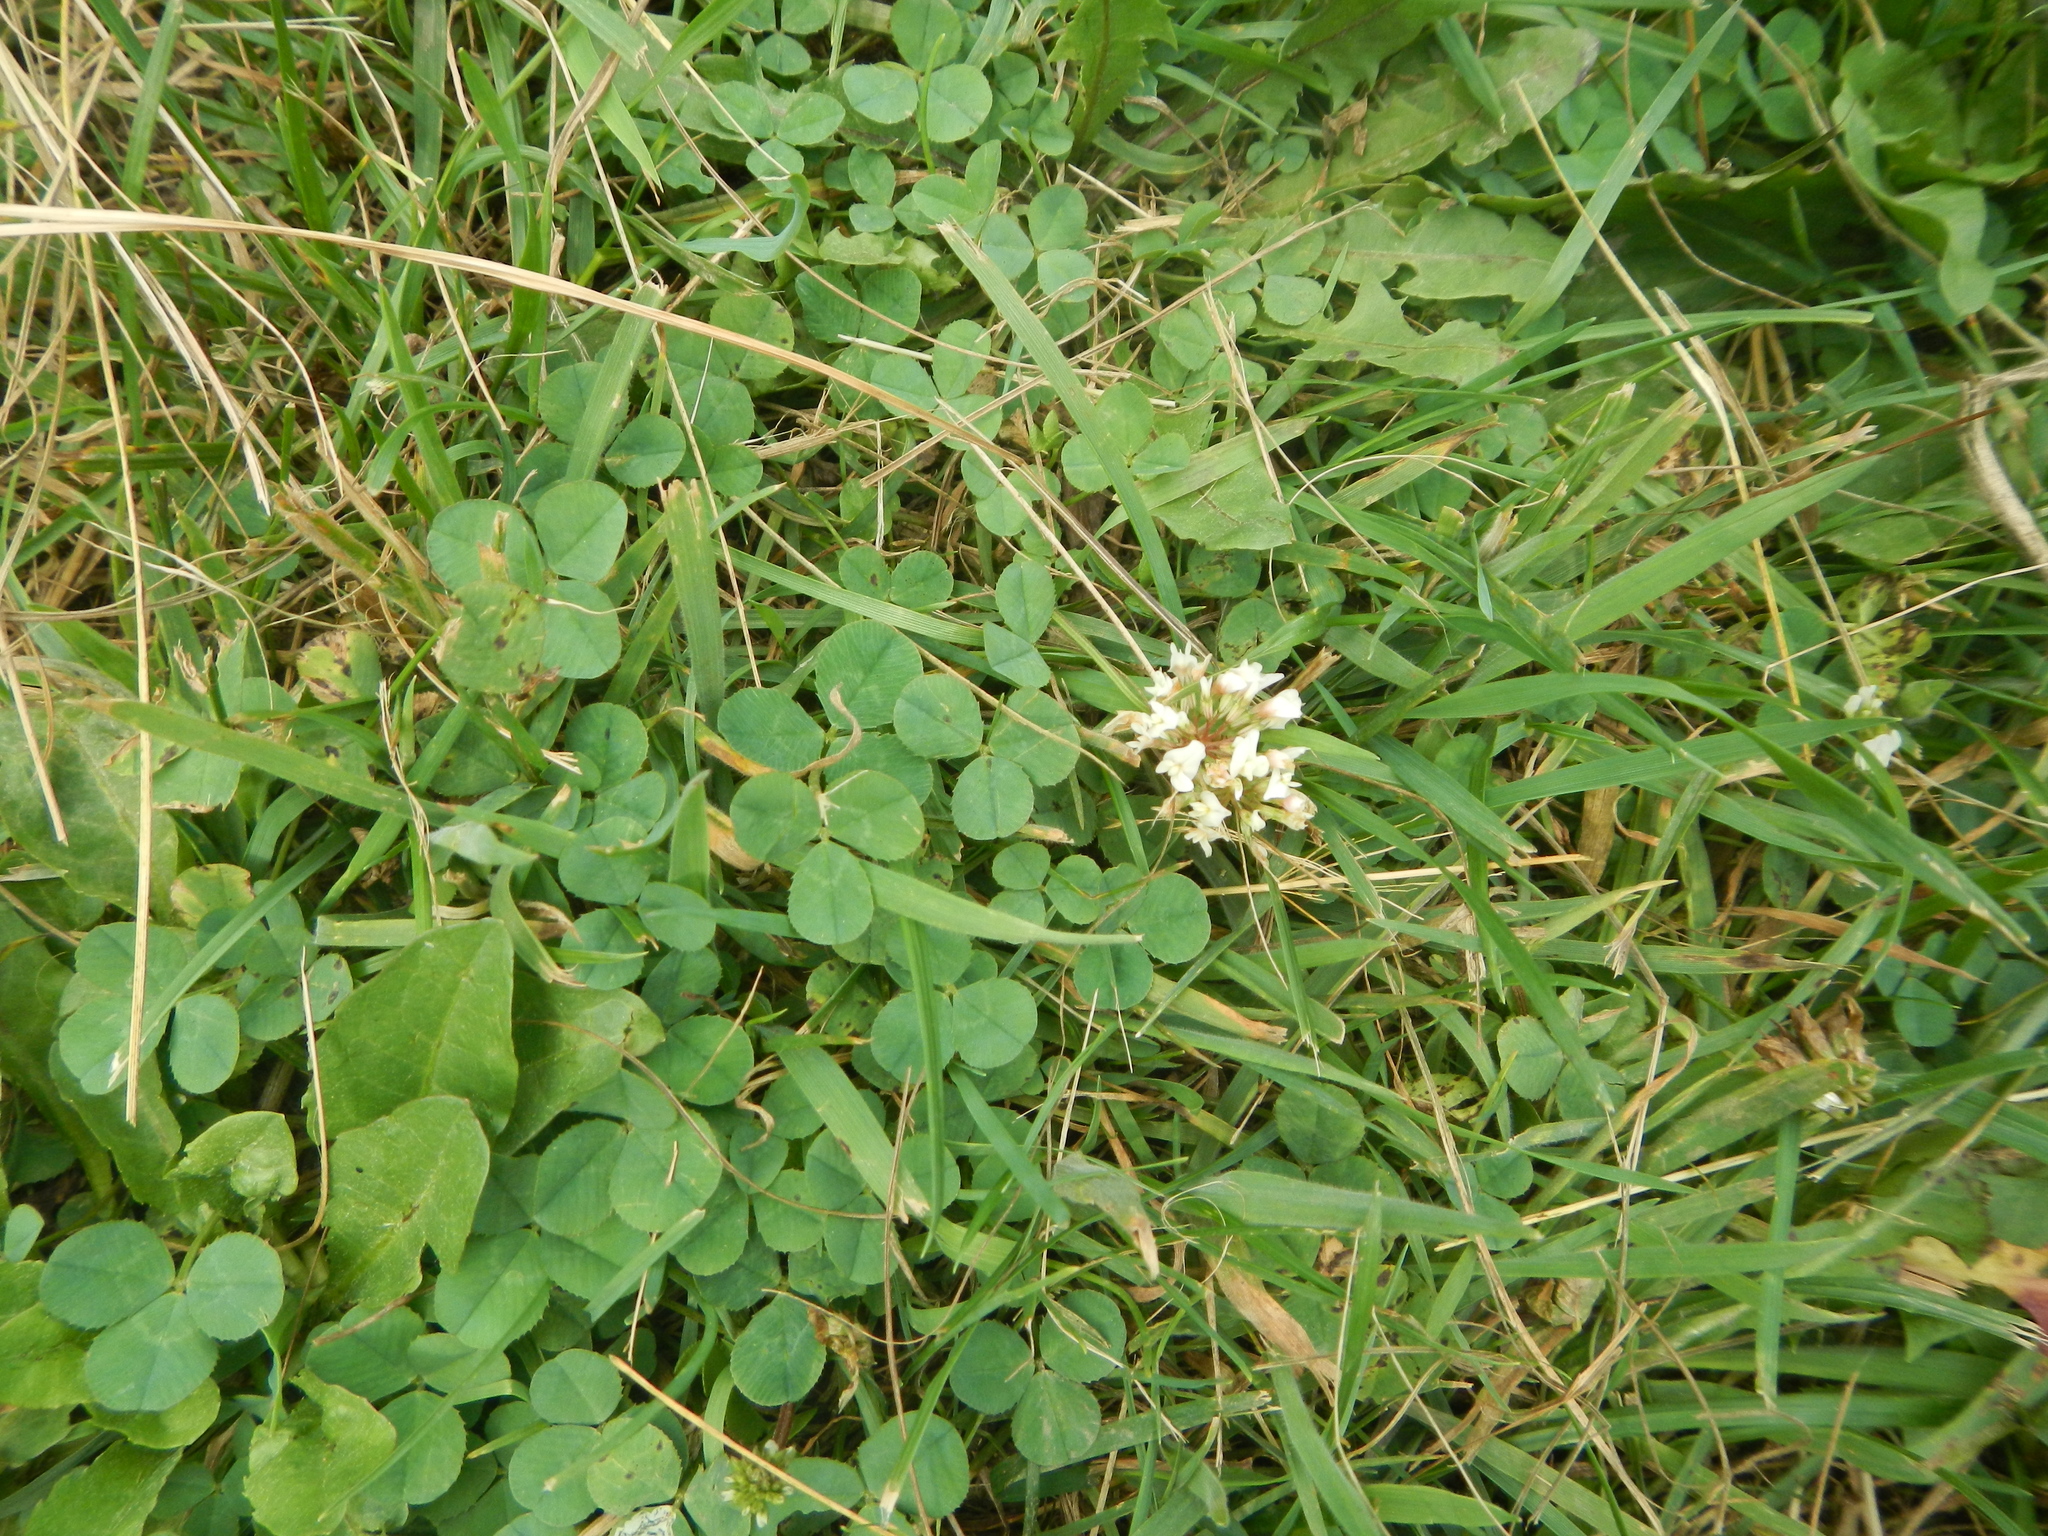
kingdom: Plantae
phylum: Tracheophyta
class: Magnoliopsida
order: Fabales
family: Fabaceae
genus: Trifolium
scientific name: Trifolium repens
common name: White clover
